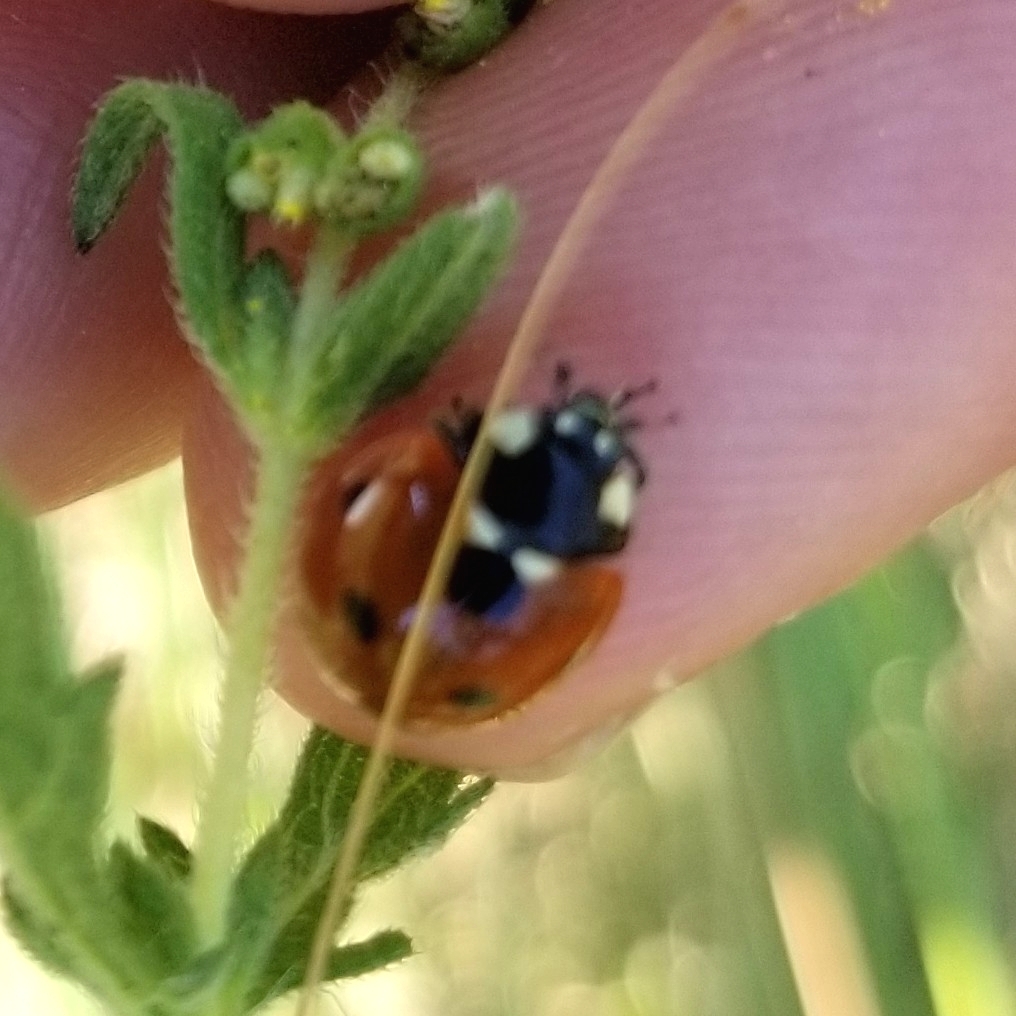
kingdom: Animalia
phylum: Arthropoda
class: Insecta
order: Coleoptera
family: Coccinellidae
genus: Coccinella
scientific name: Coccinella septempunctata
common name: Sevenspotted lady beetle
